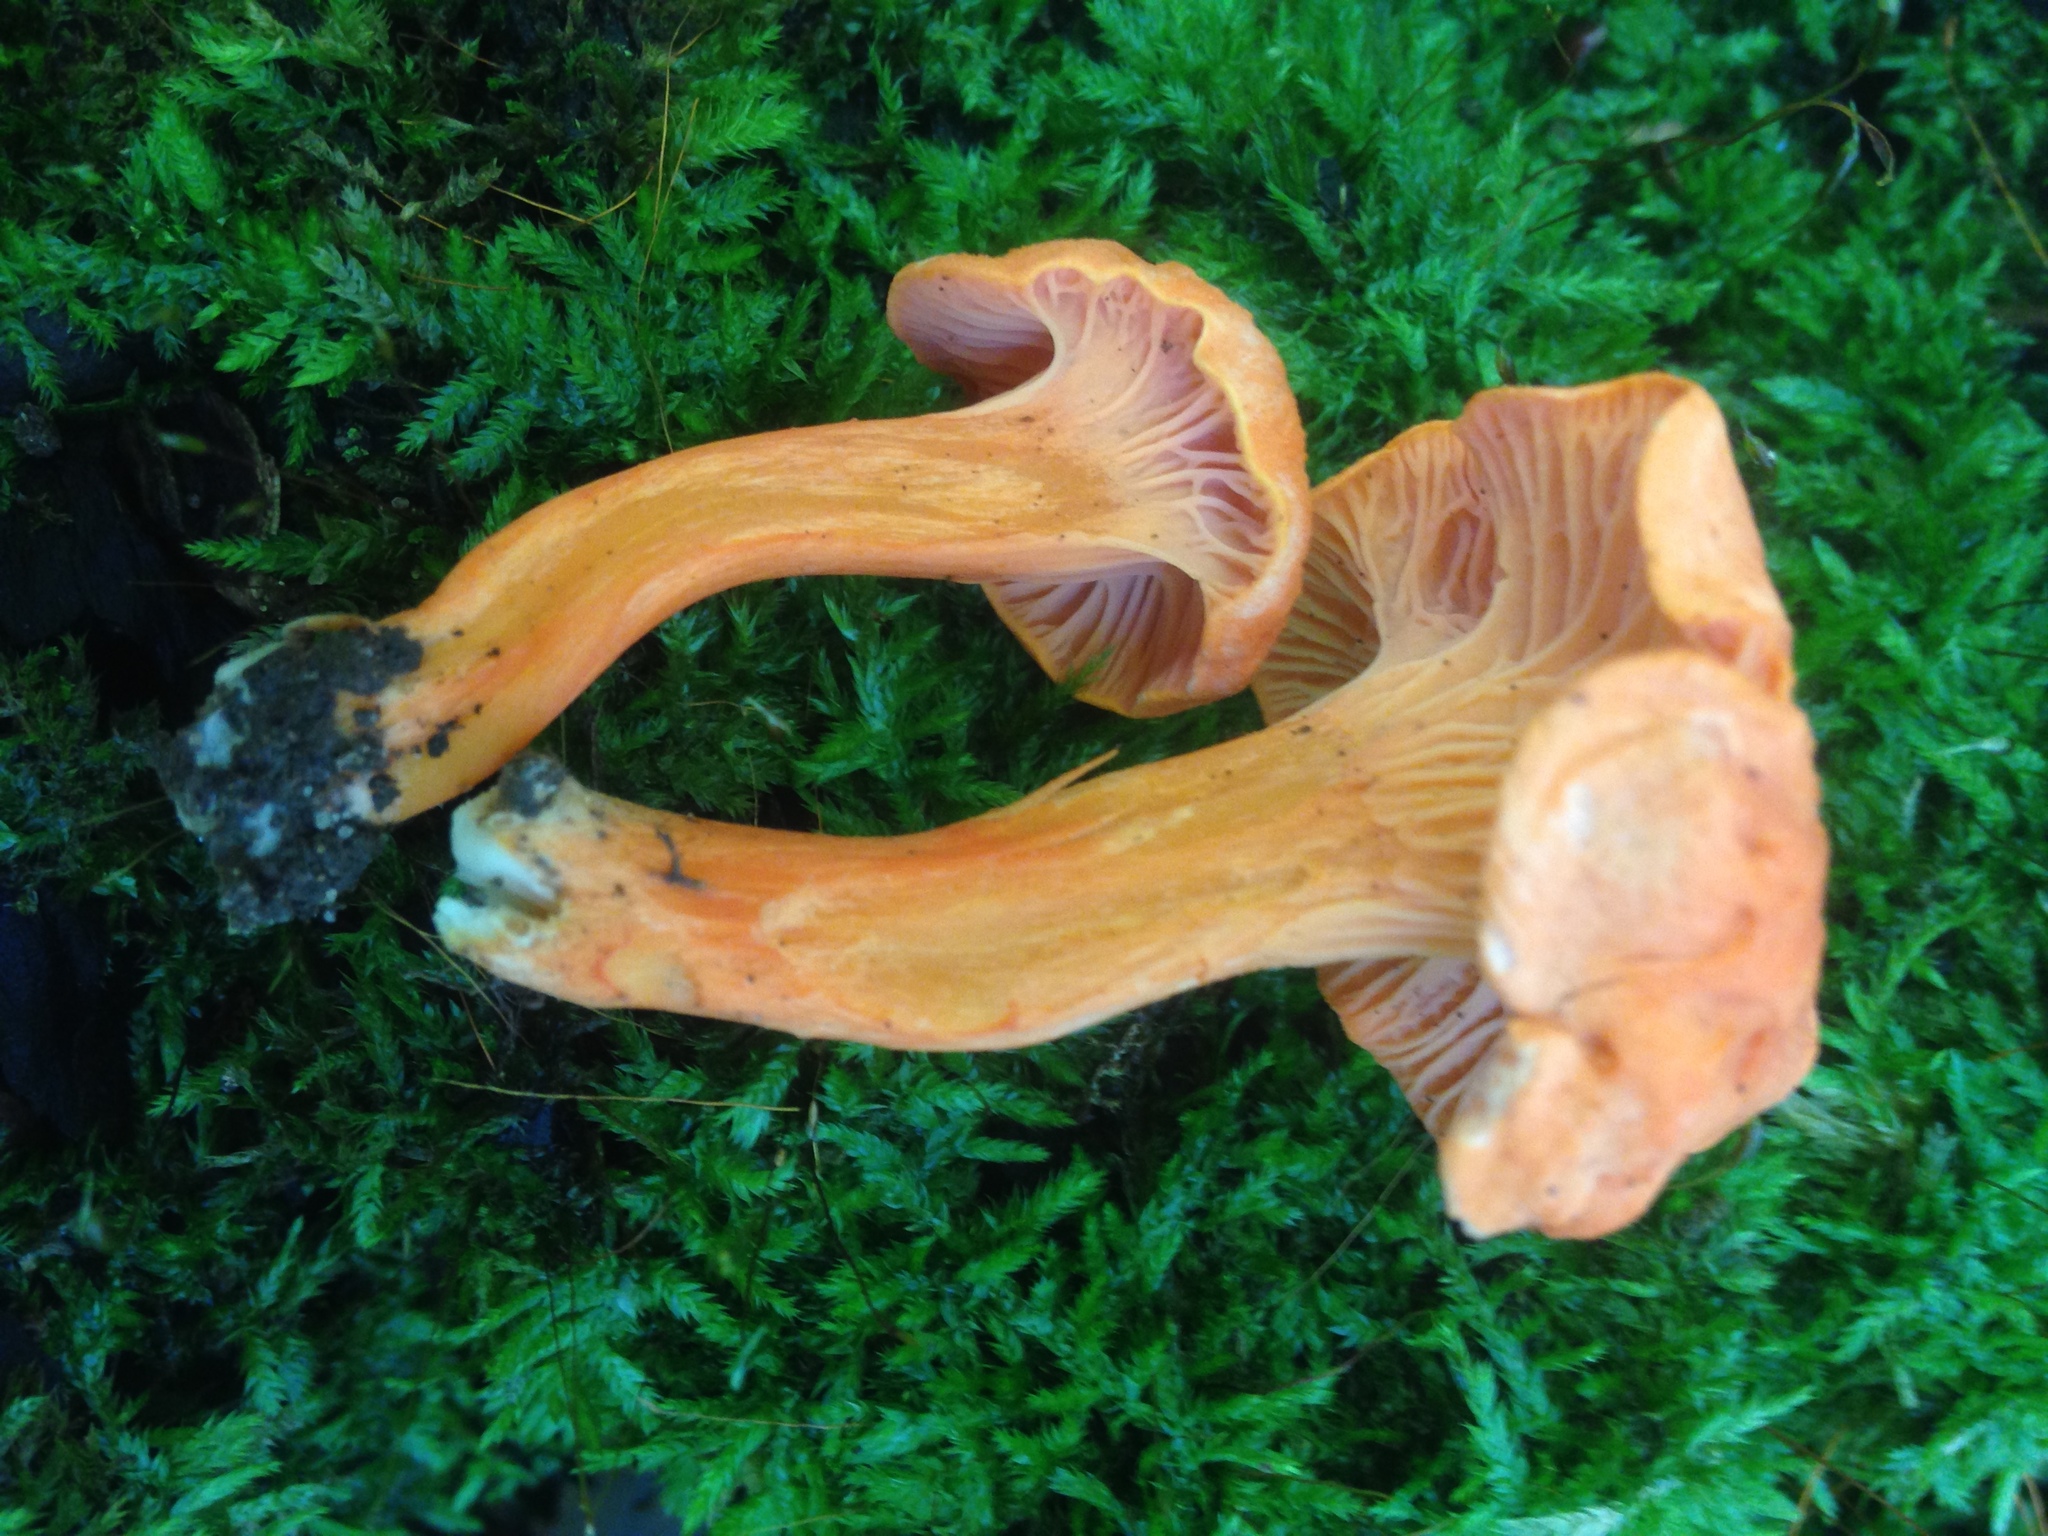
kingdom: Fungi
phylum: Basidiomycota
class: Agaricomycetes
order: Cantharellales
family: Hydnaceae
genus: Cantharellus
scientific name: Cantharellus cinnabarinus
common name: Cinnabar chanterelle
